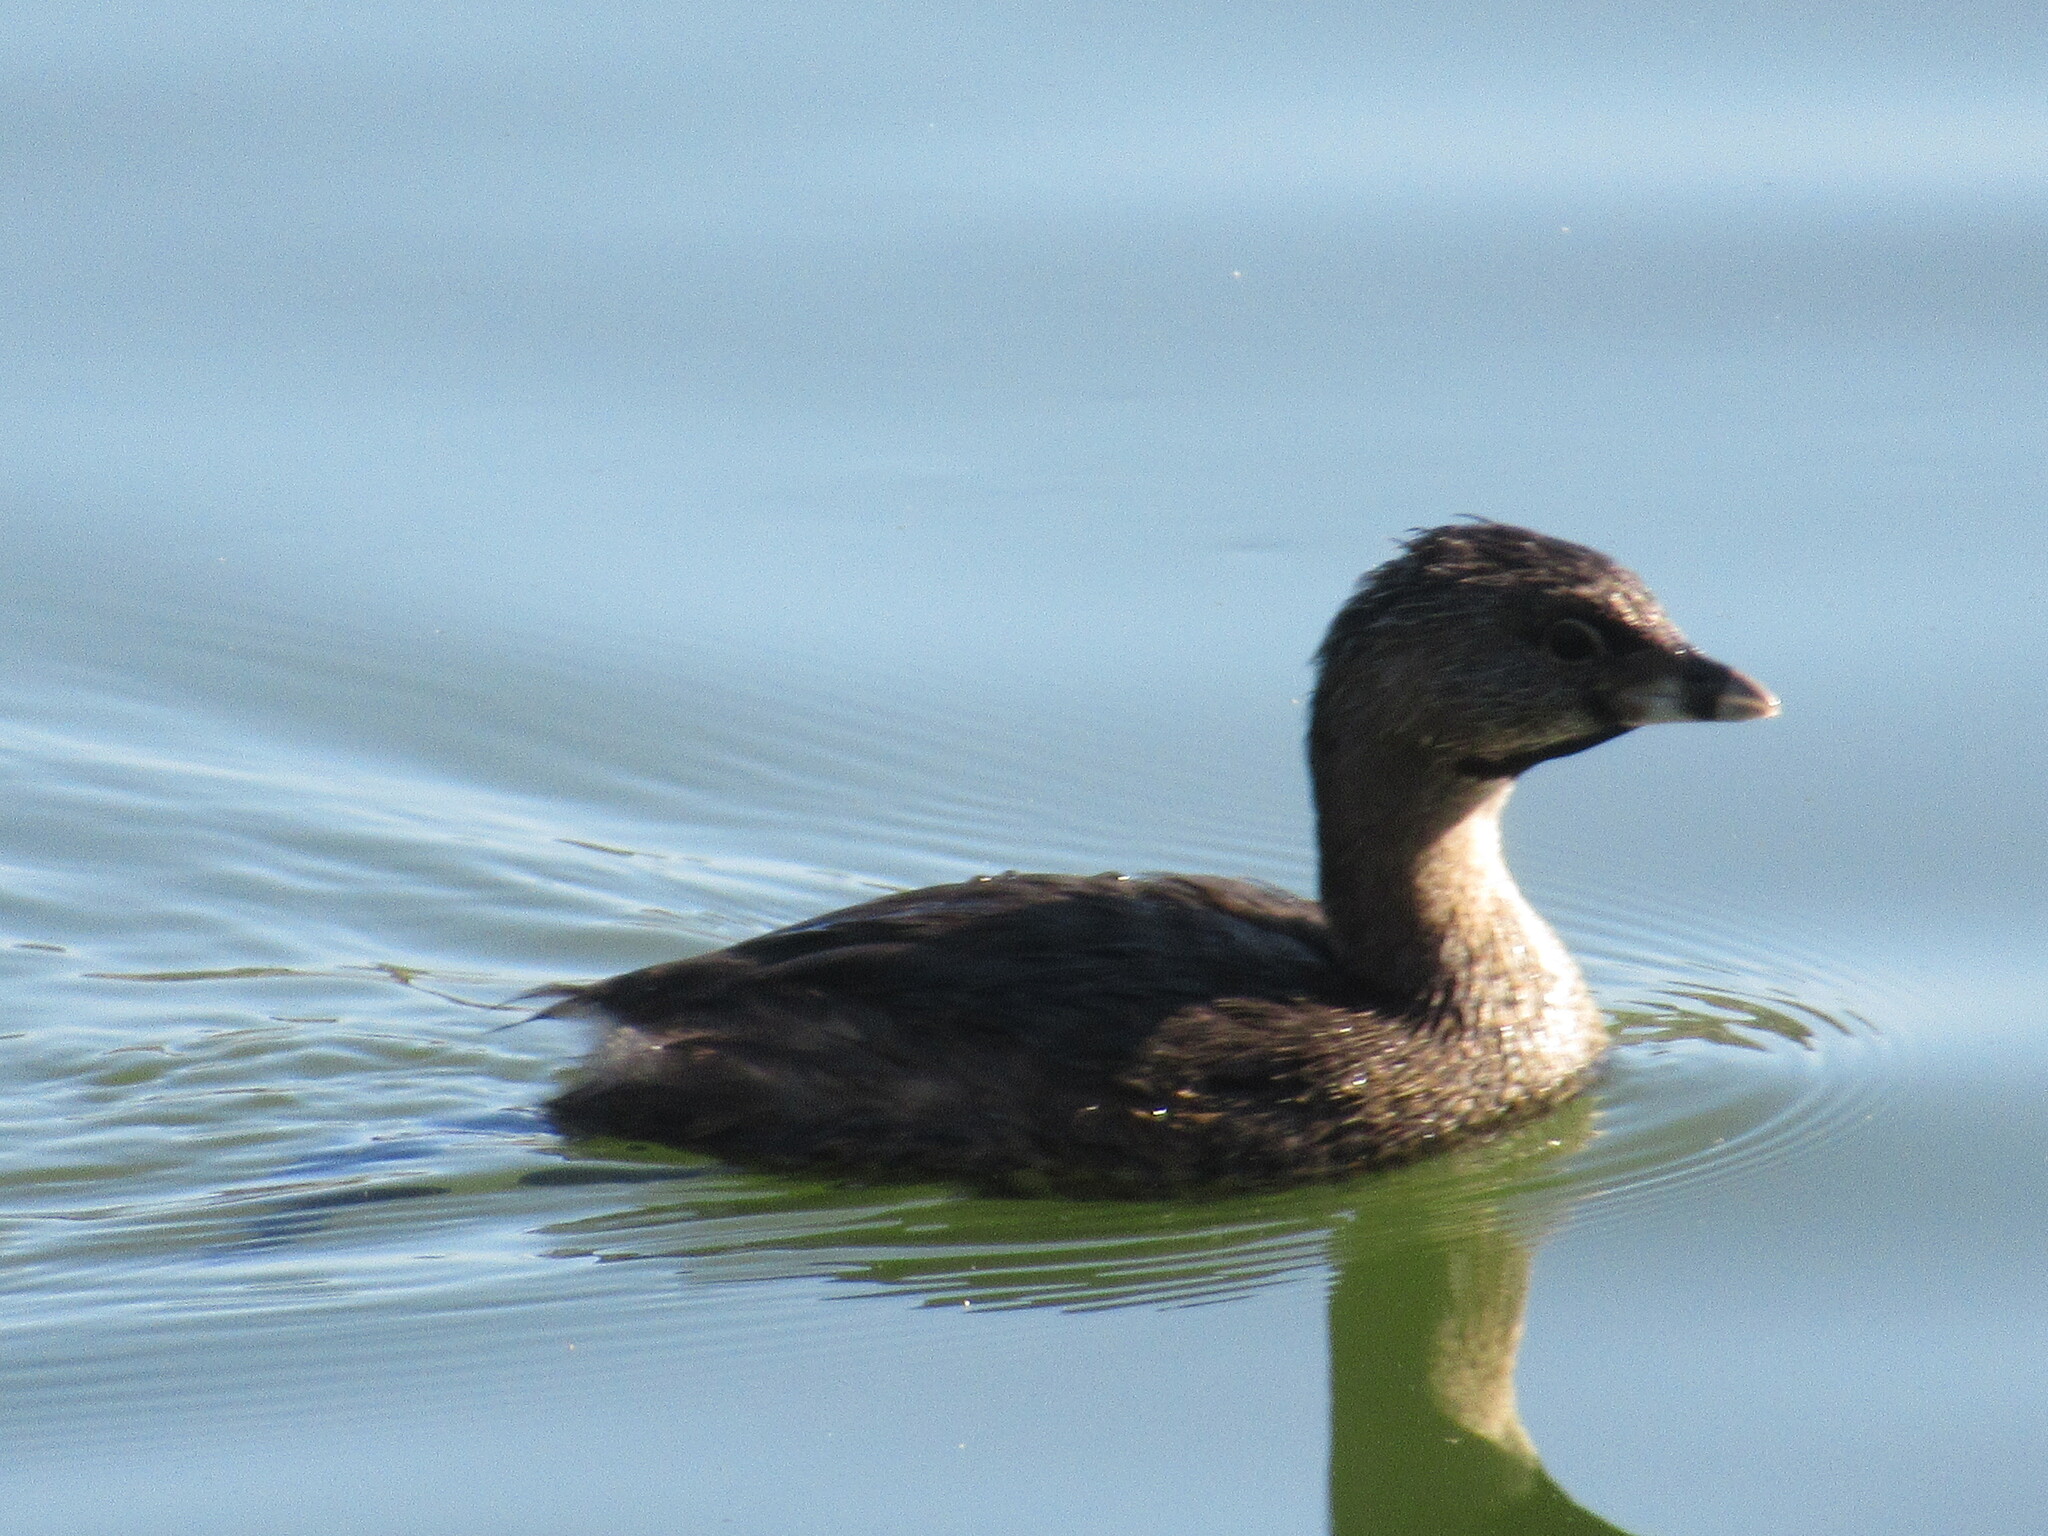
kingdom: Animalia
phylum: Chordata
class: Aves
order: Podicipediformes
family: Podicipedidae
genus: Podilymbus
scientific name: Podilymbus podiceps
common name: Pied-billed grebe
